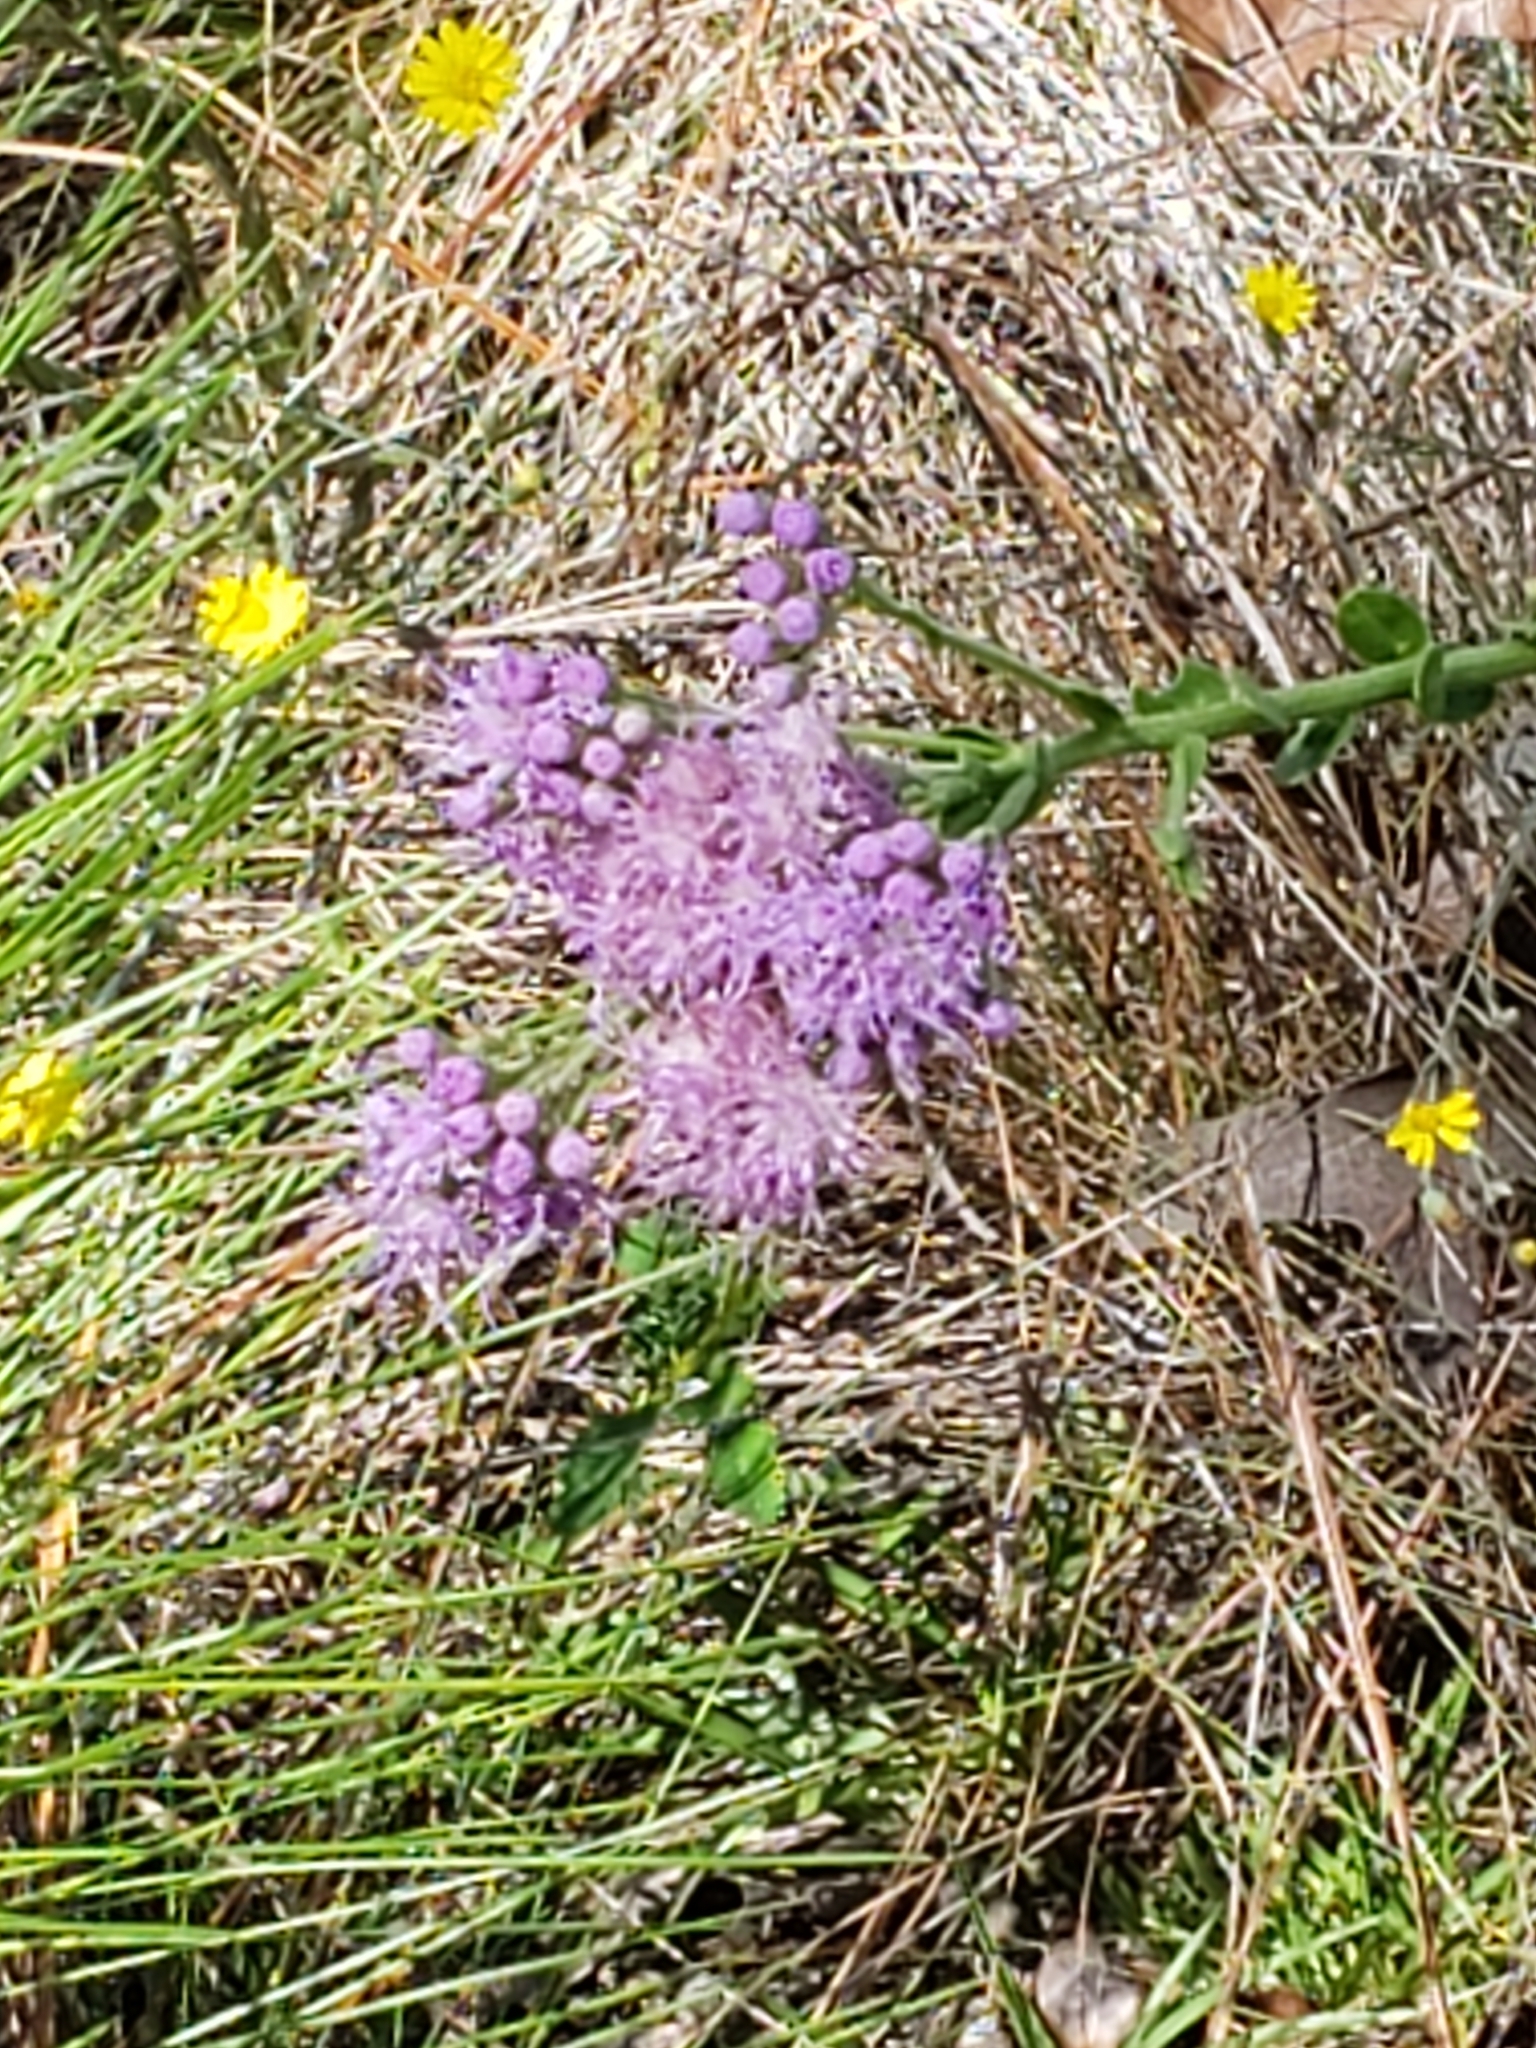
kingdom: Plantae
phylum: Tracheophyta
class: Magnoliopsida
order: Asterales
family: Asteraceae
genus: Carphephorus
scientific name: Carphephorus corymbosus
